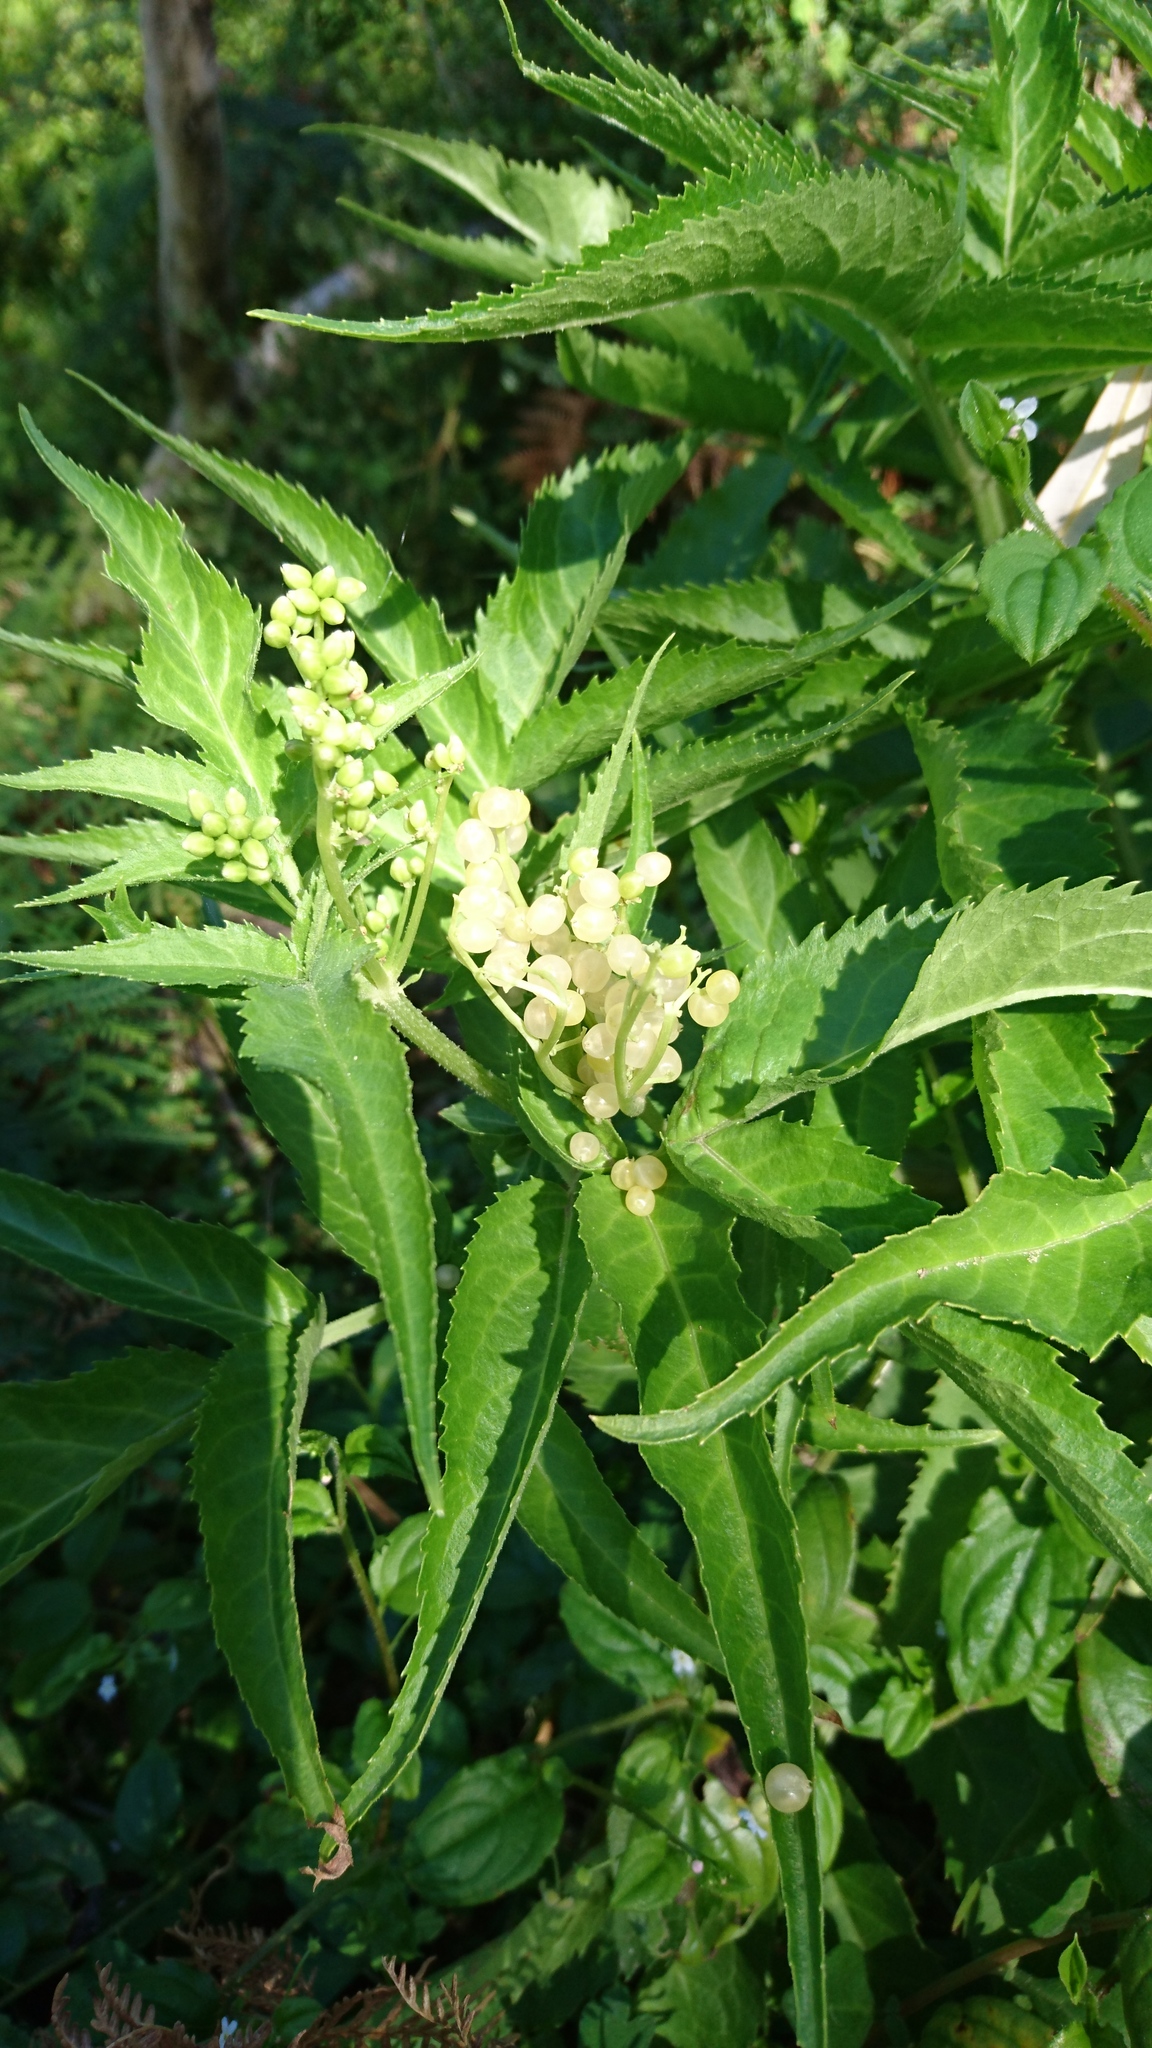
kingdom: Plantae
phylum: Tracheophyta
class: Magnoliopsida
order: Dipsacales
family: Viburnaceae
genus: Sambucus
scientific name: Sambucus gaudichaudiana
